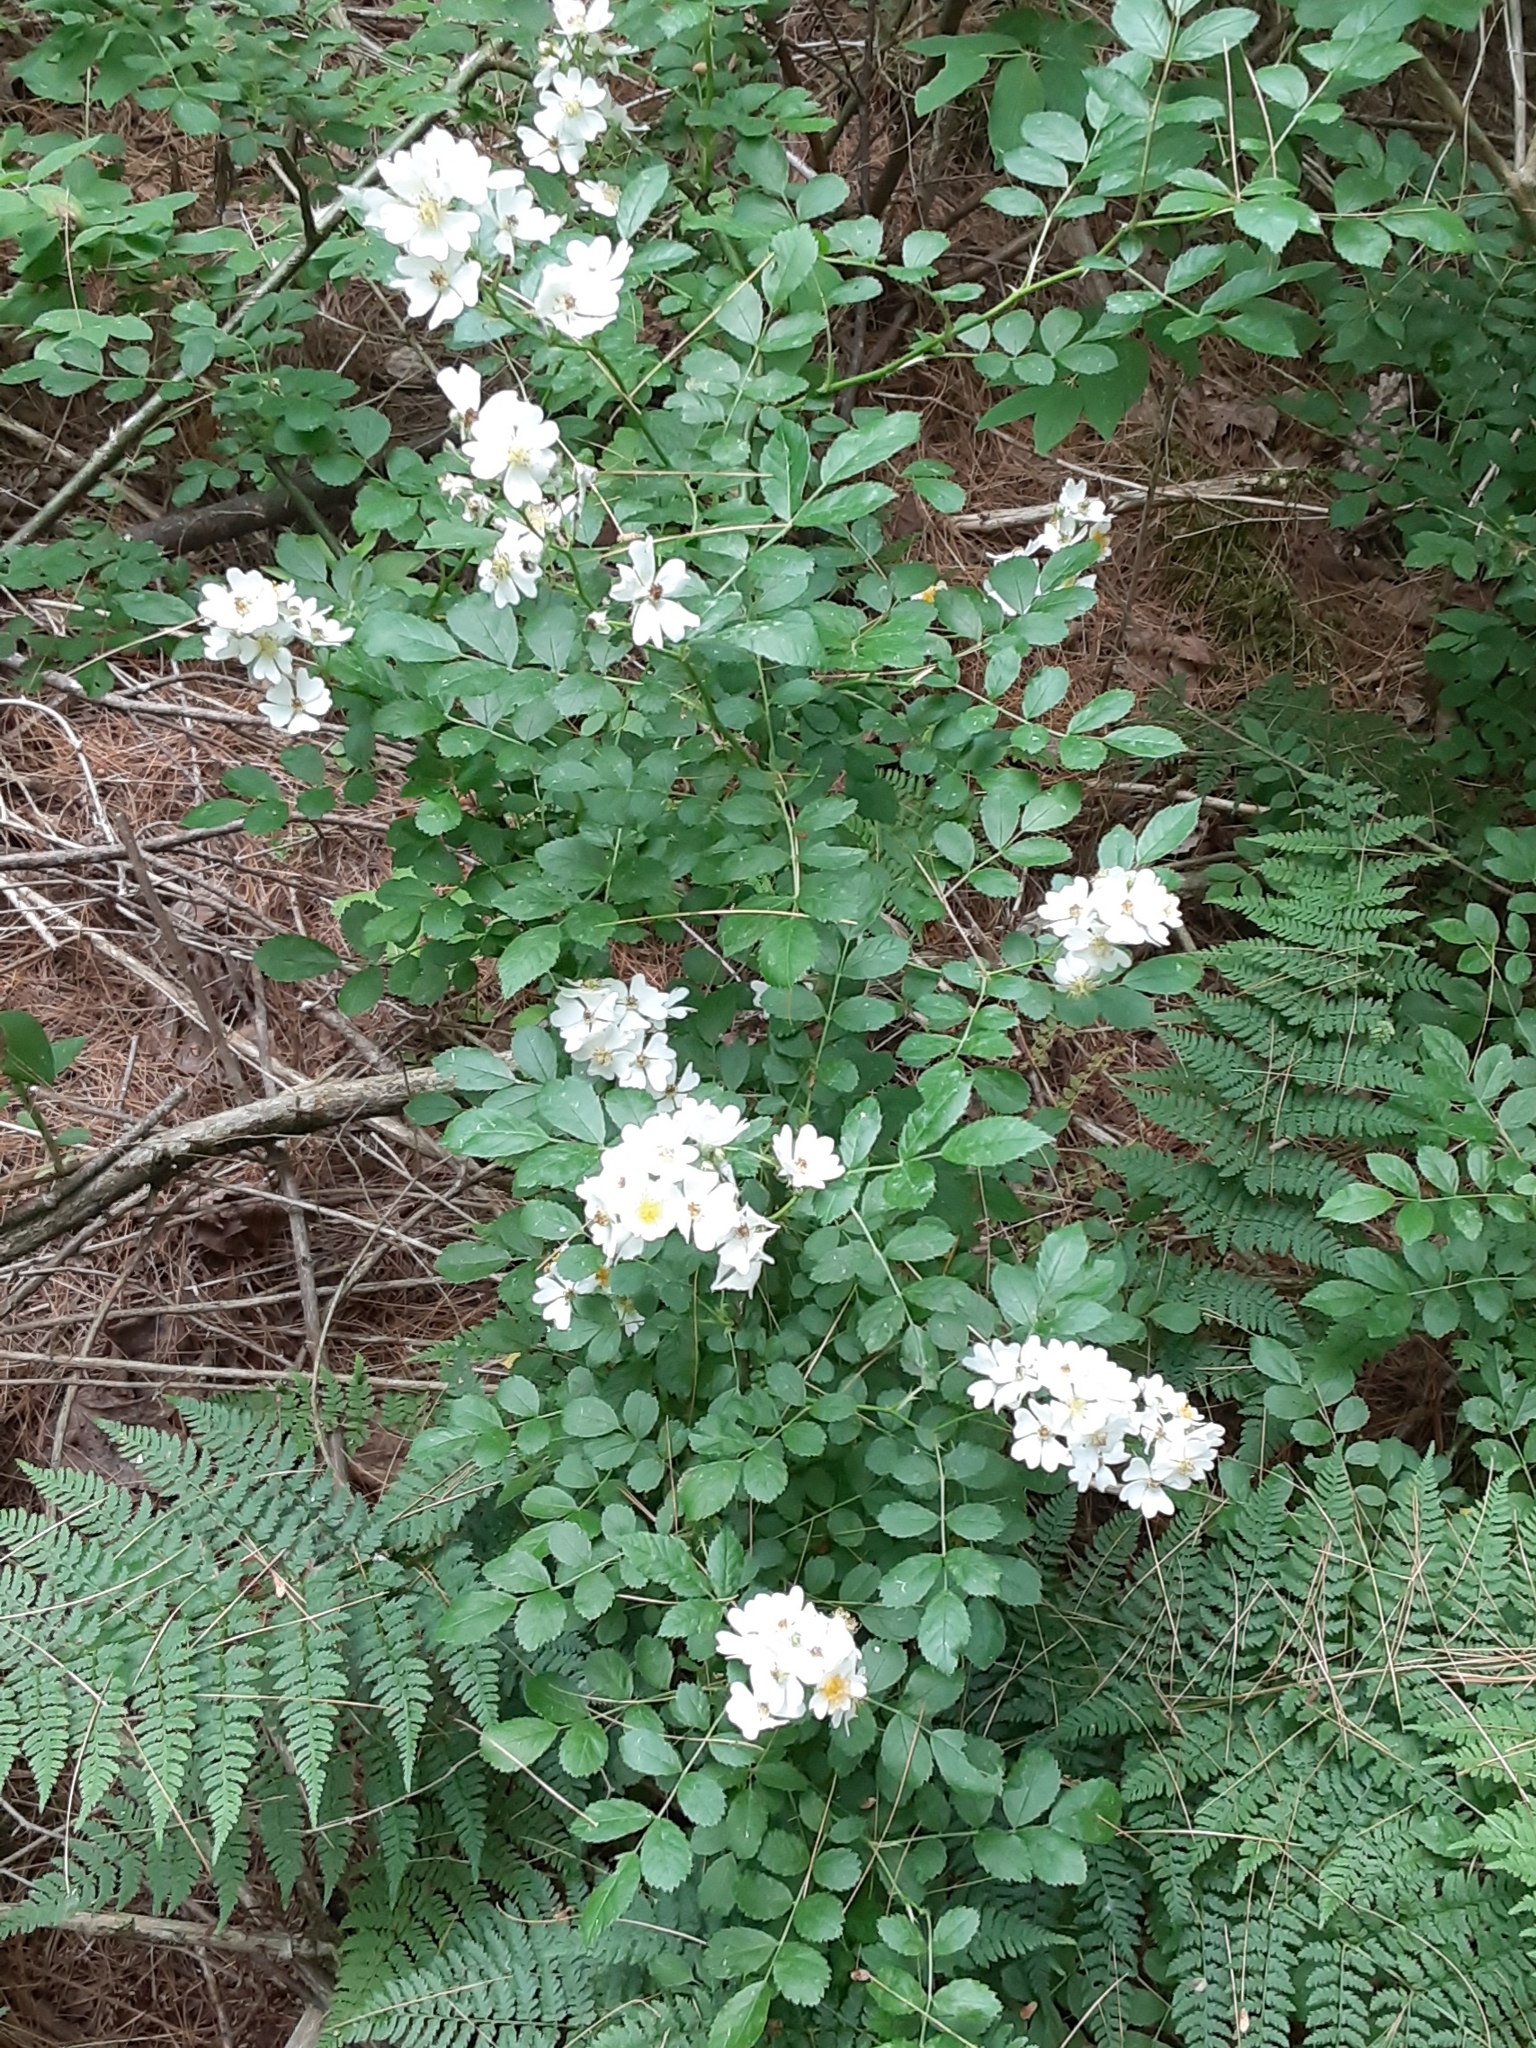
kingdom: Plantae
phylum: Tracheophyta
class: Magnoliopsida
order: Rosales
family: Rosaceae
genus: Rosa
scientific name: Rosa multiflora
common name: Multiflora rose
